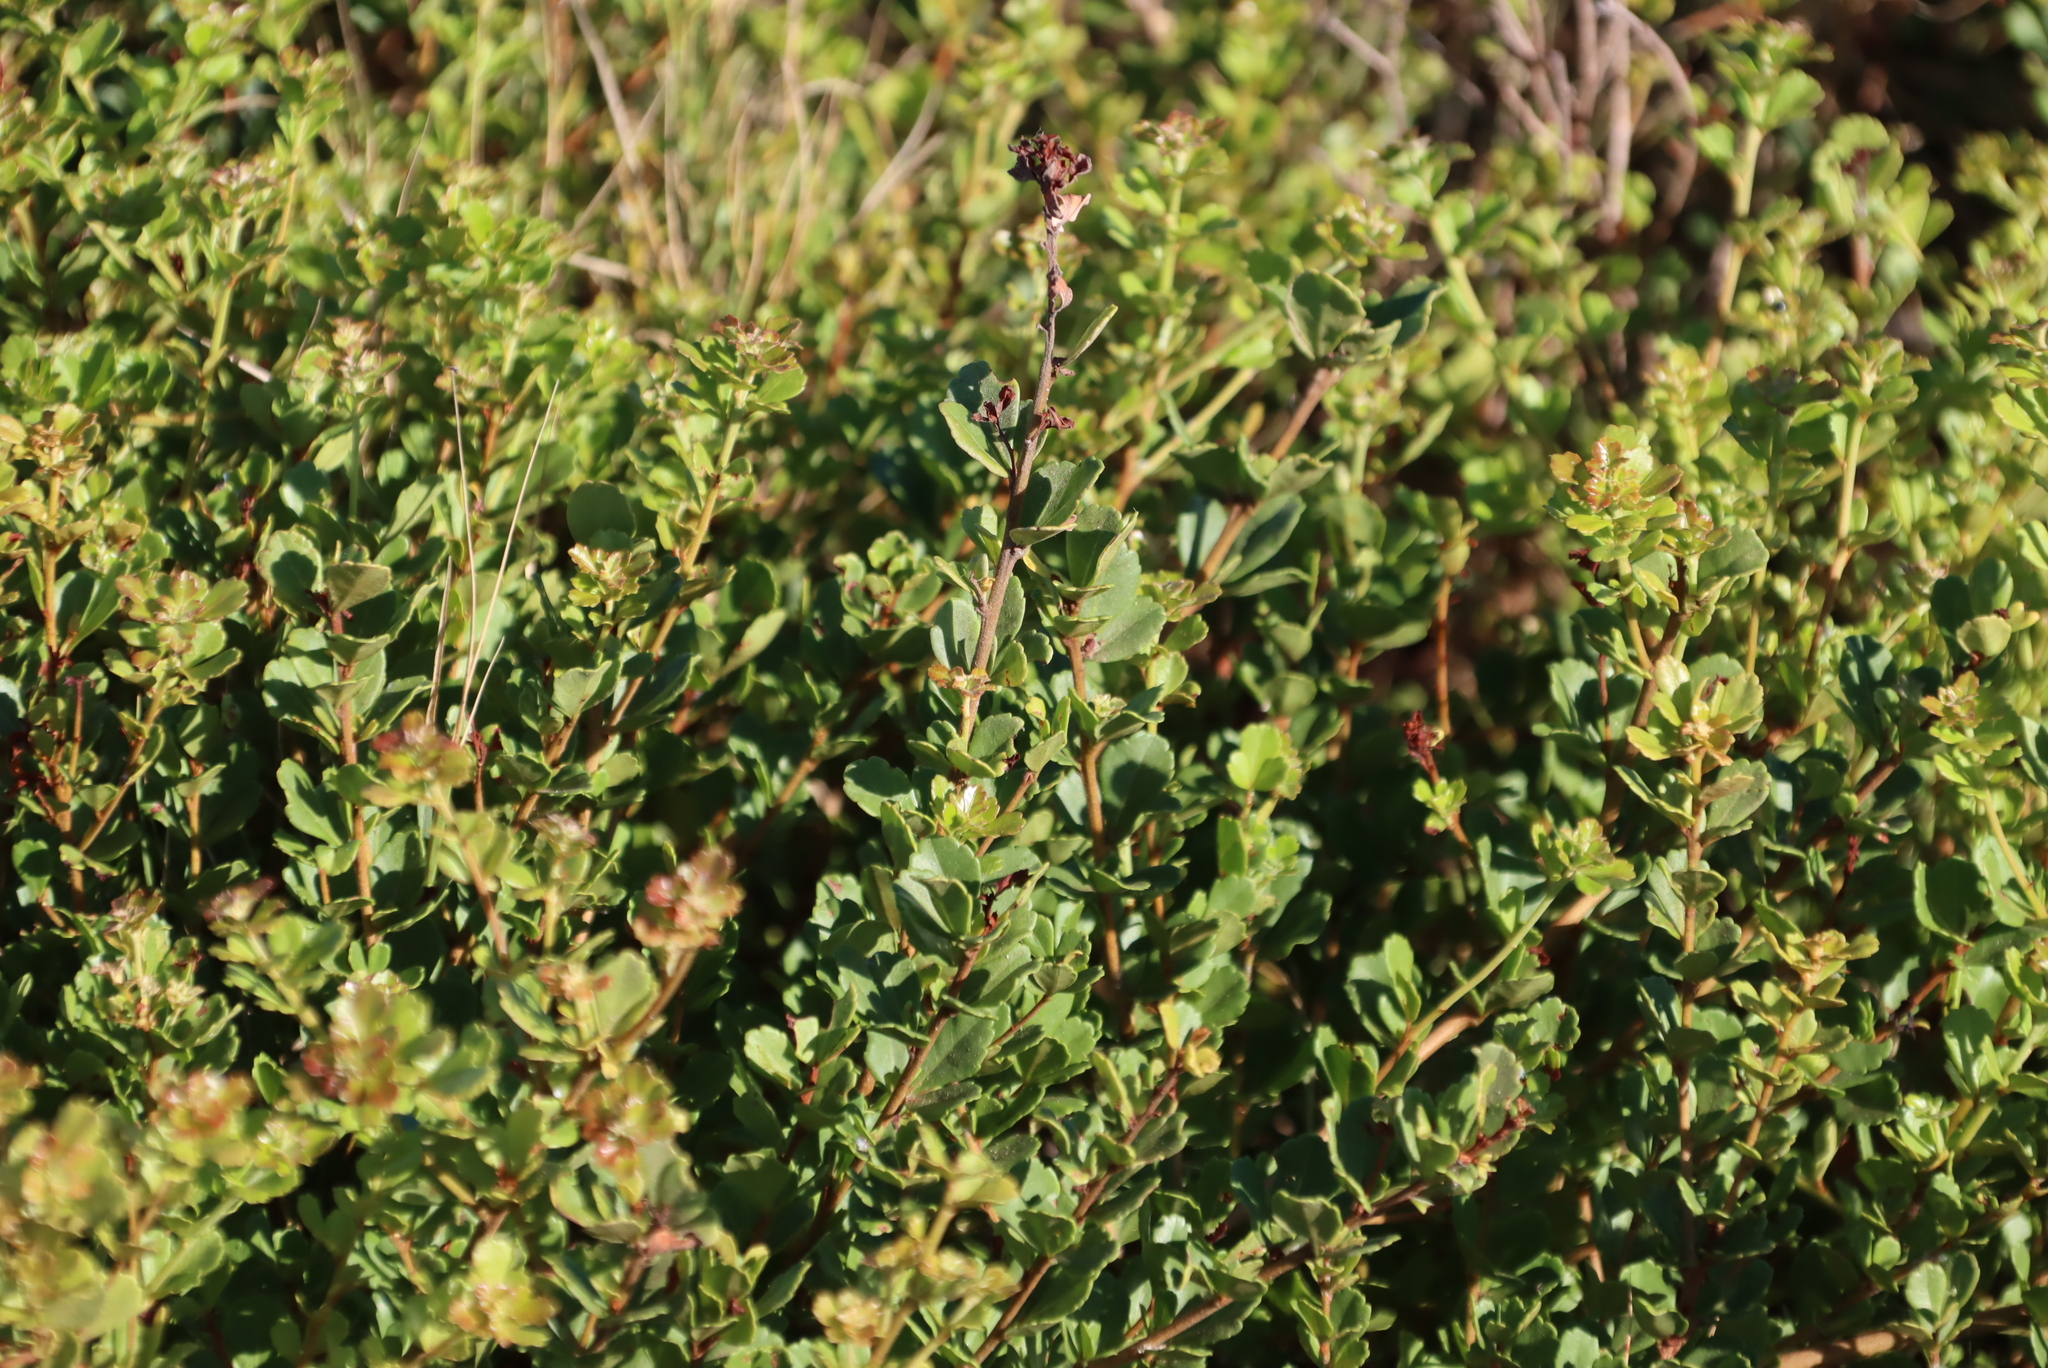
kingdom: Plantae
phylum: Tracheophyta
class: Magnoliopsida
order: Sapindales
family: Anacardiaceae
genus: Searsia
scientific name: Searsia crenata
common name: Crowberry
